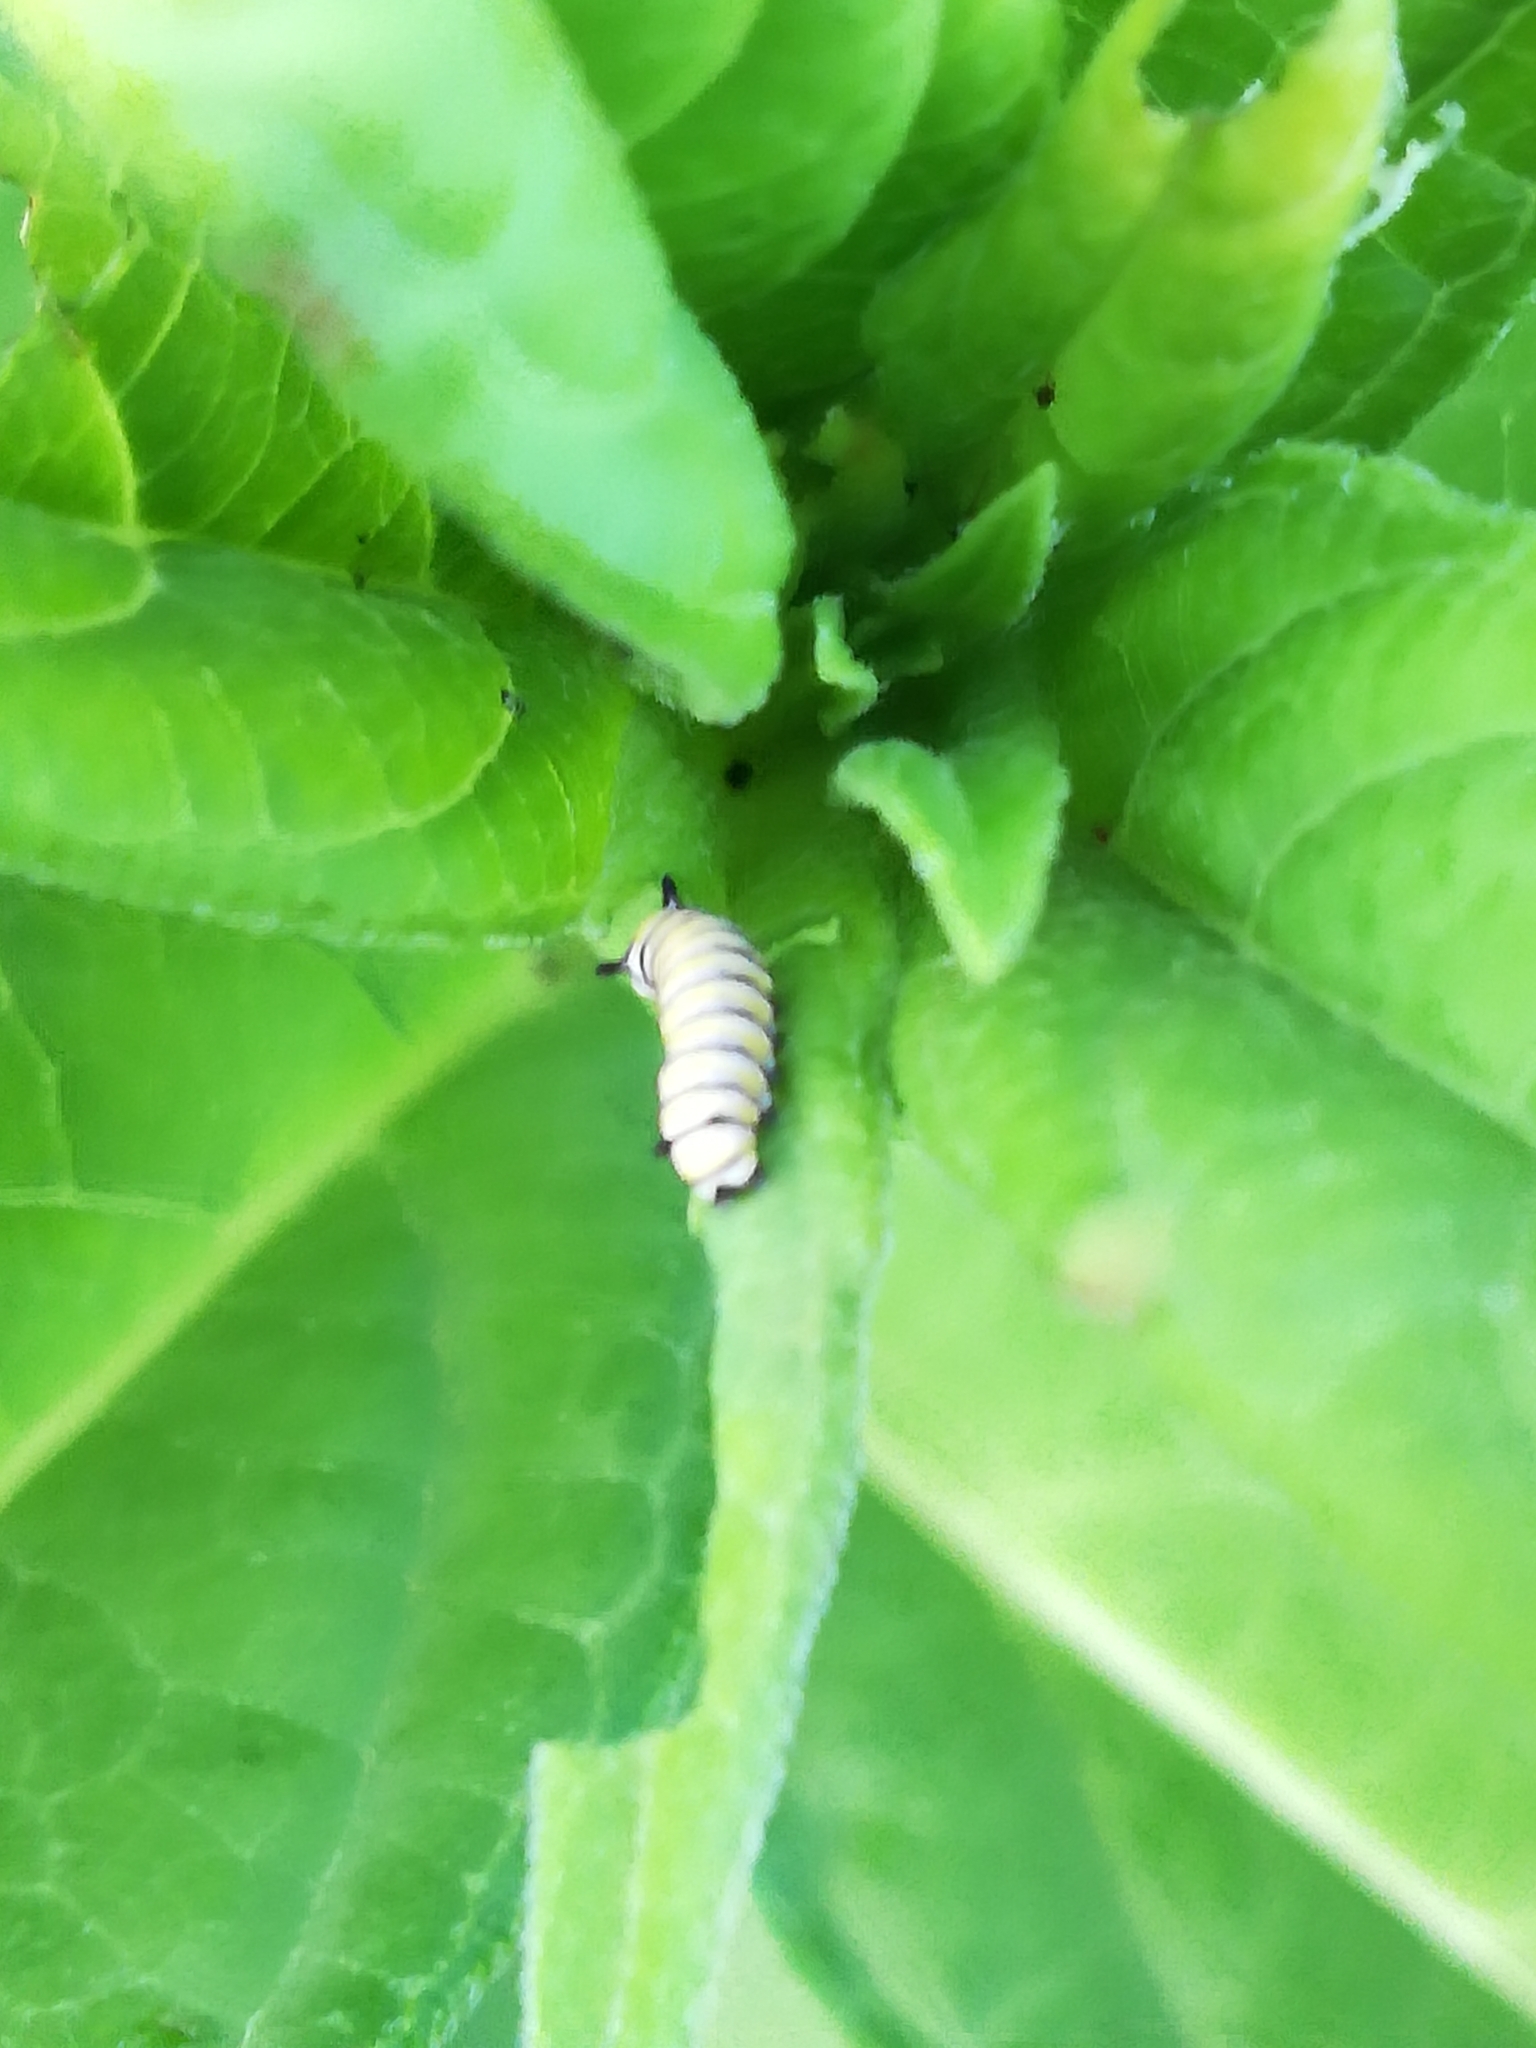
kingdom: Animalia
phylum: Arthropoda
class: Insecta
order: Lepidoptera
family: Nymphalidae
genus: Danaus
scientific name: Danaus plexippus
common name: Monarch
